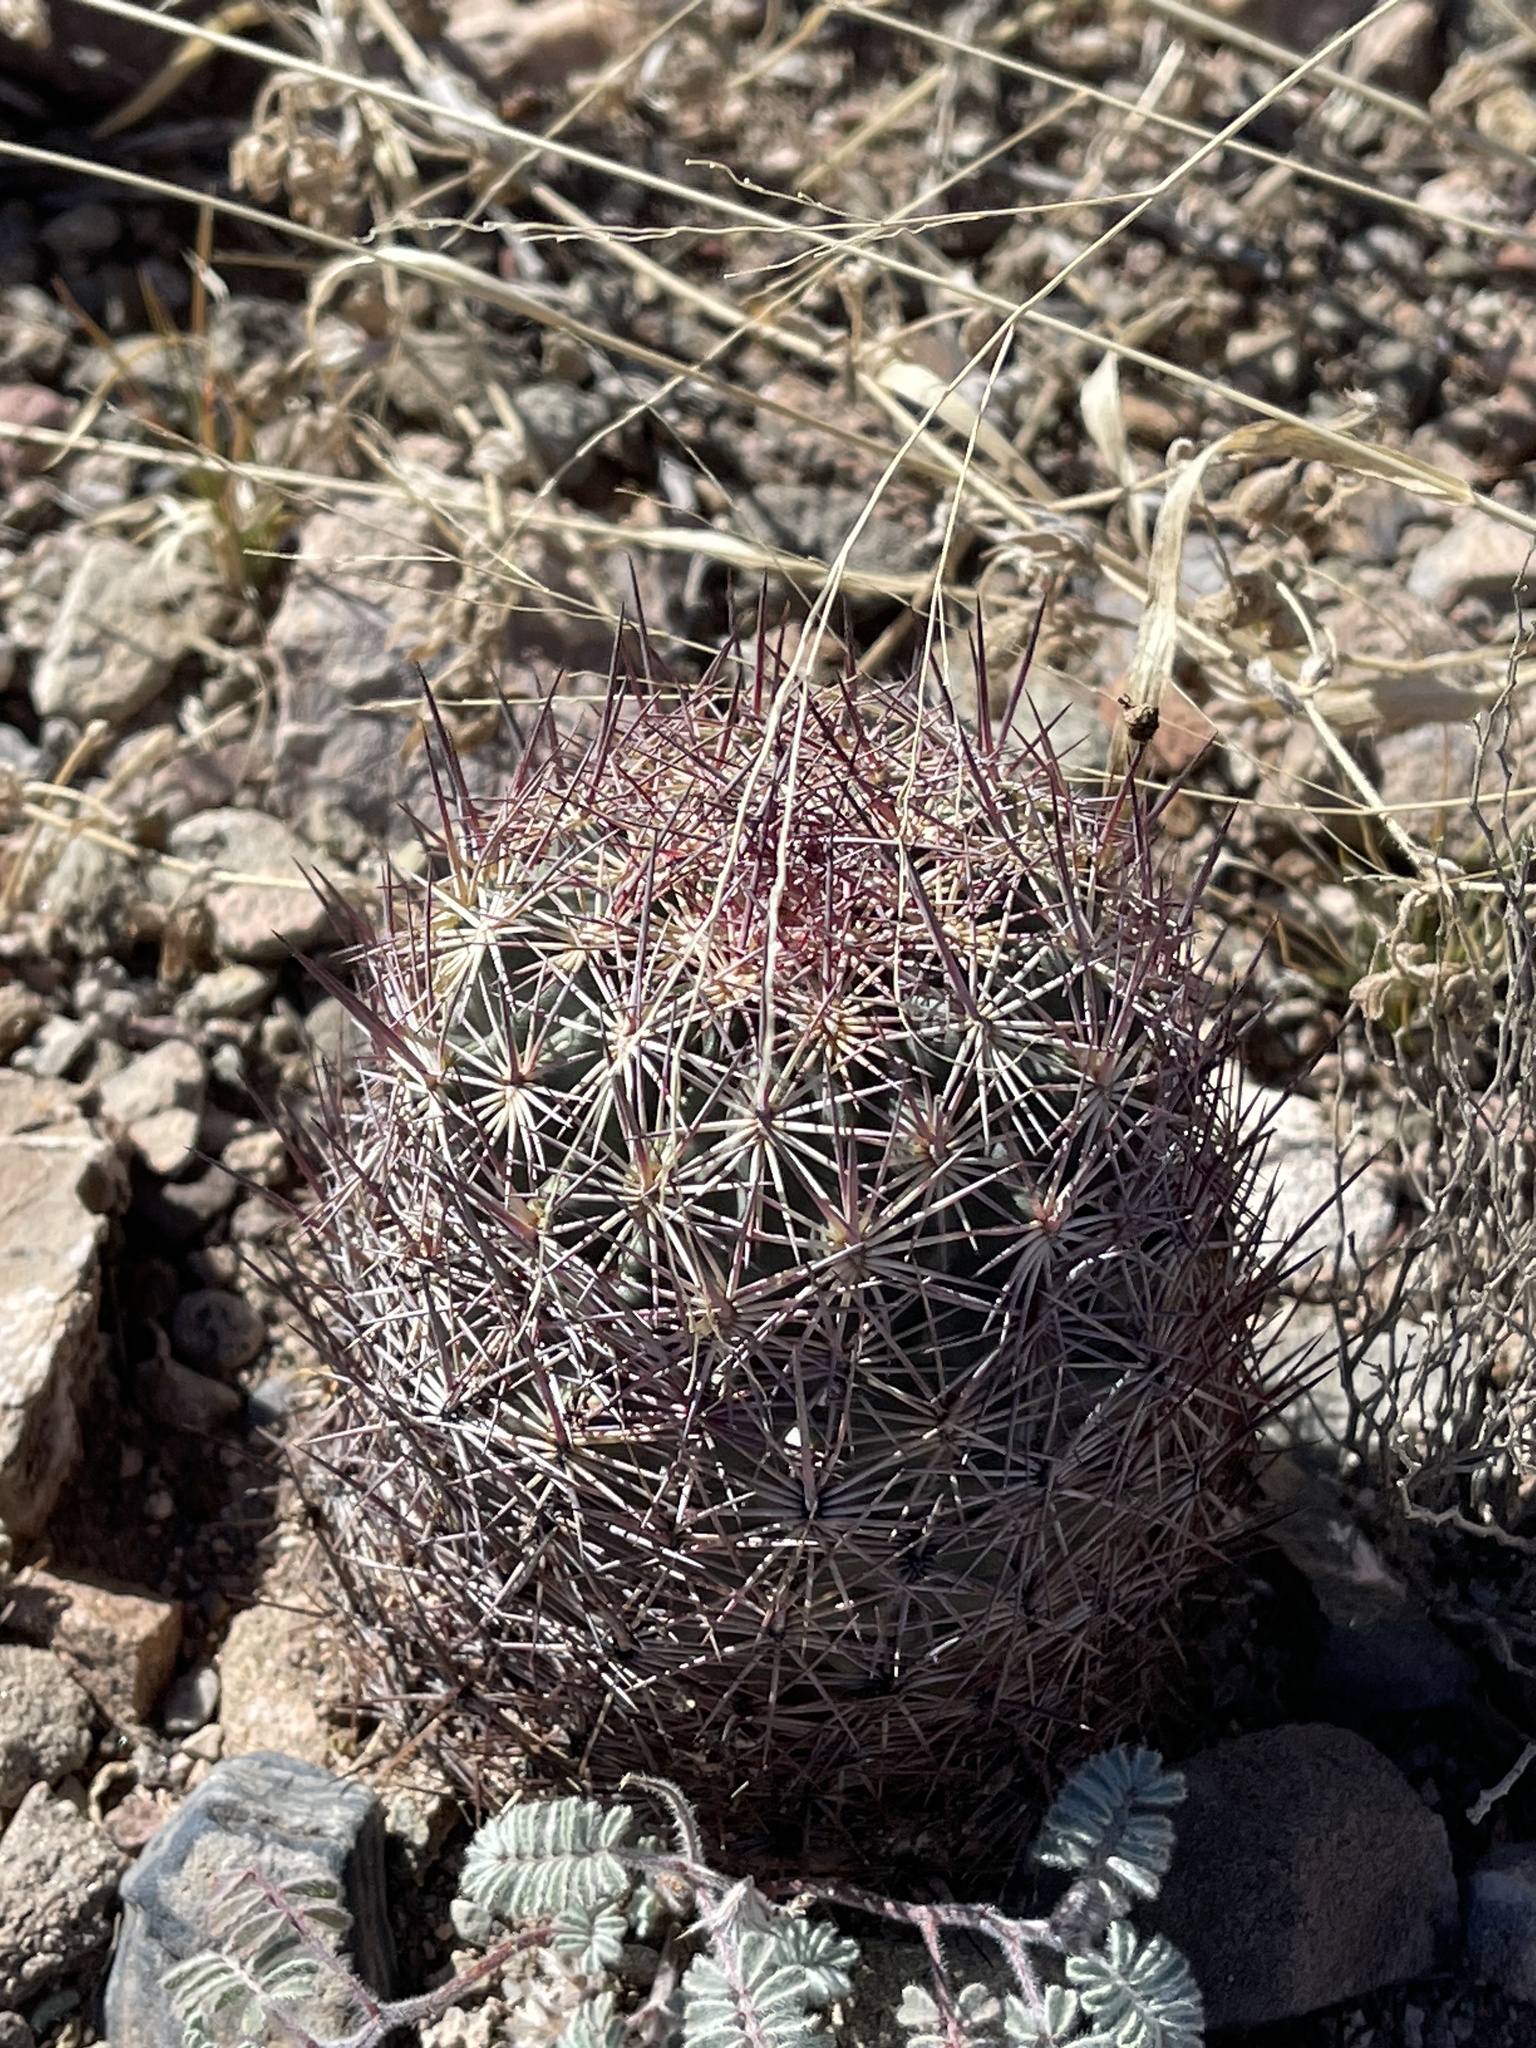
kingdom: Plantae
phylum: Tracheophyta
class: Magnoliopsida
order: Caryophyllales
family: Cactaceae
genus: Sclerocactus
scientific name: Sclerocactus johnsonii
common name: Eight-spine fishhook cactus
